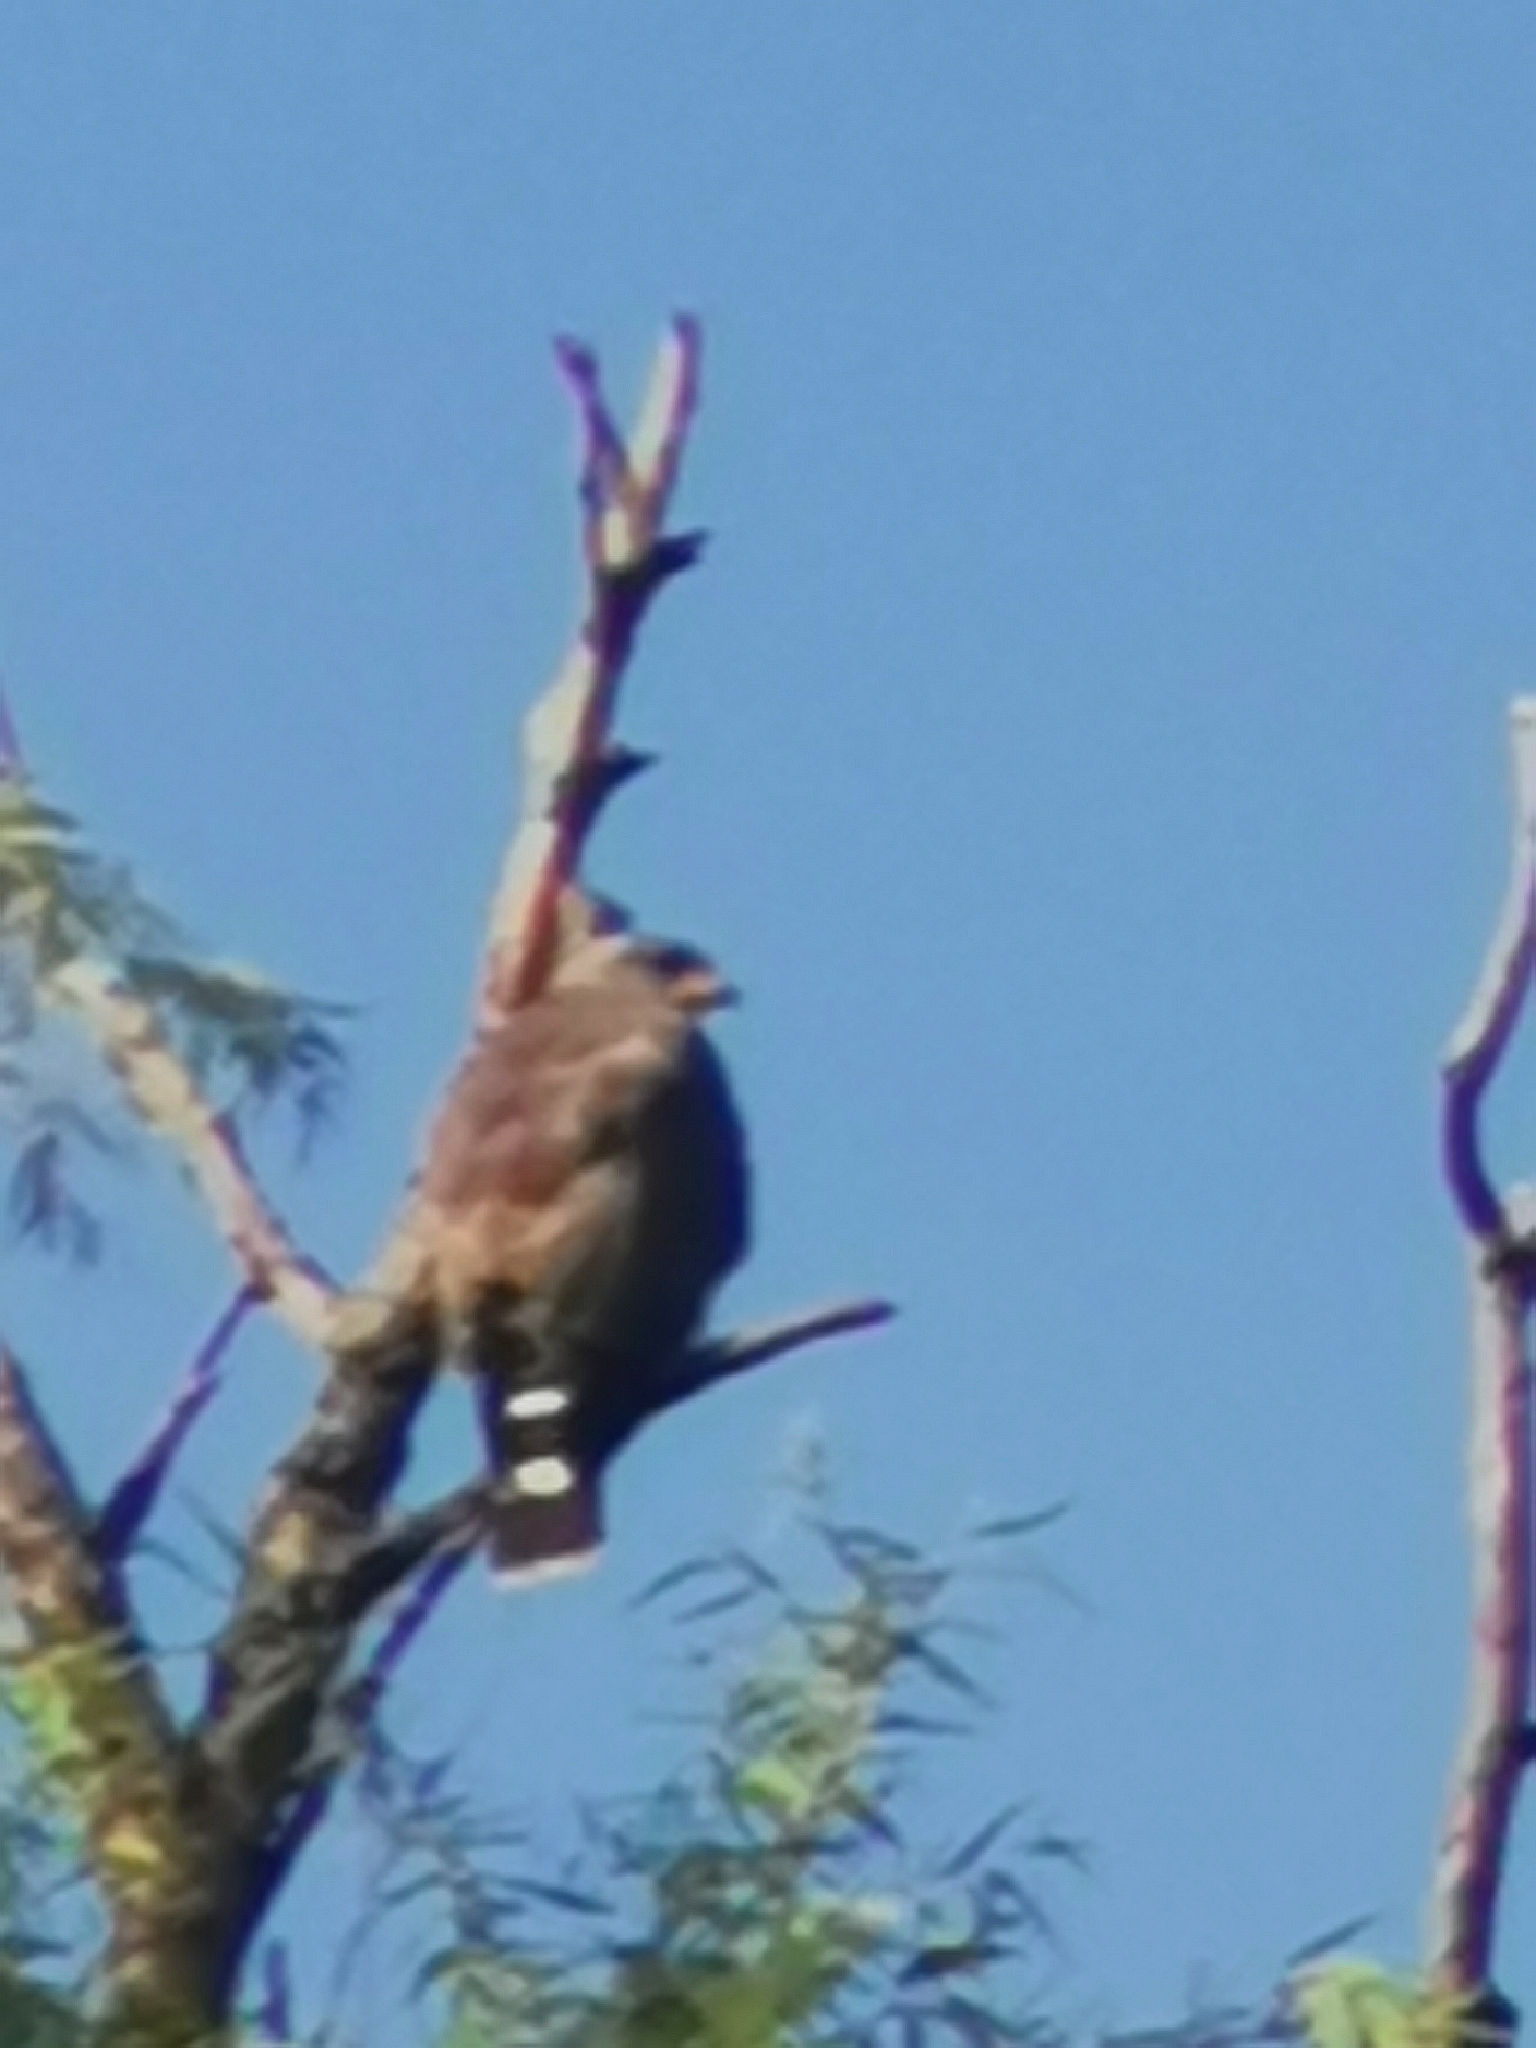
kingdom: Animalia
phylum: Chordata
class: Aves
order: Accipitriformes
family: Accipitridae
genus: Buteo
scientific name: Buteo nitidus
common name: Grey-lined hawk
